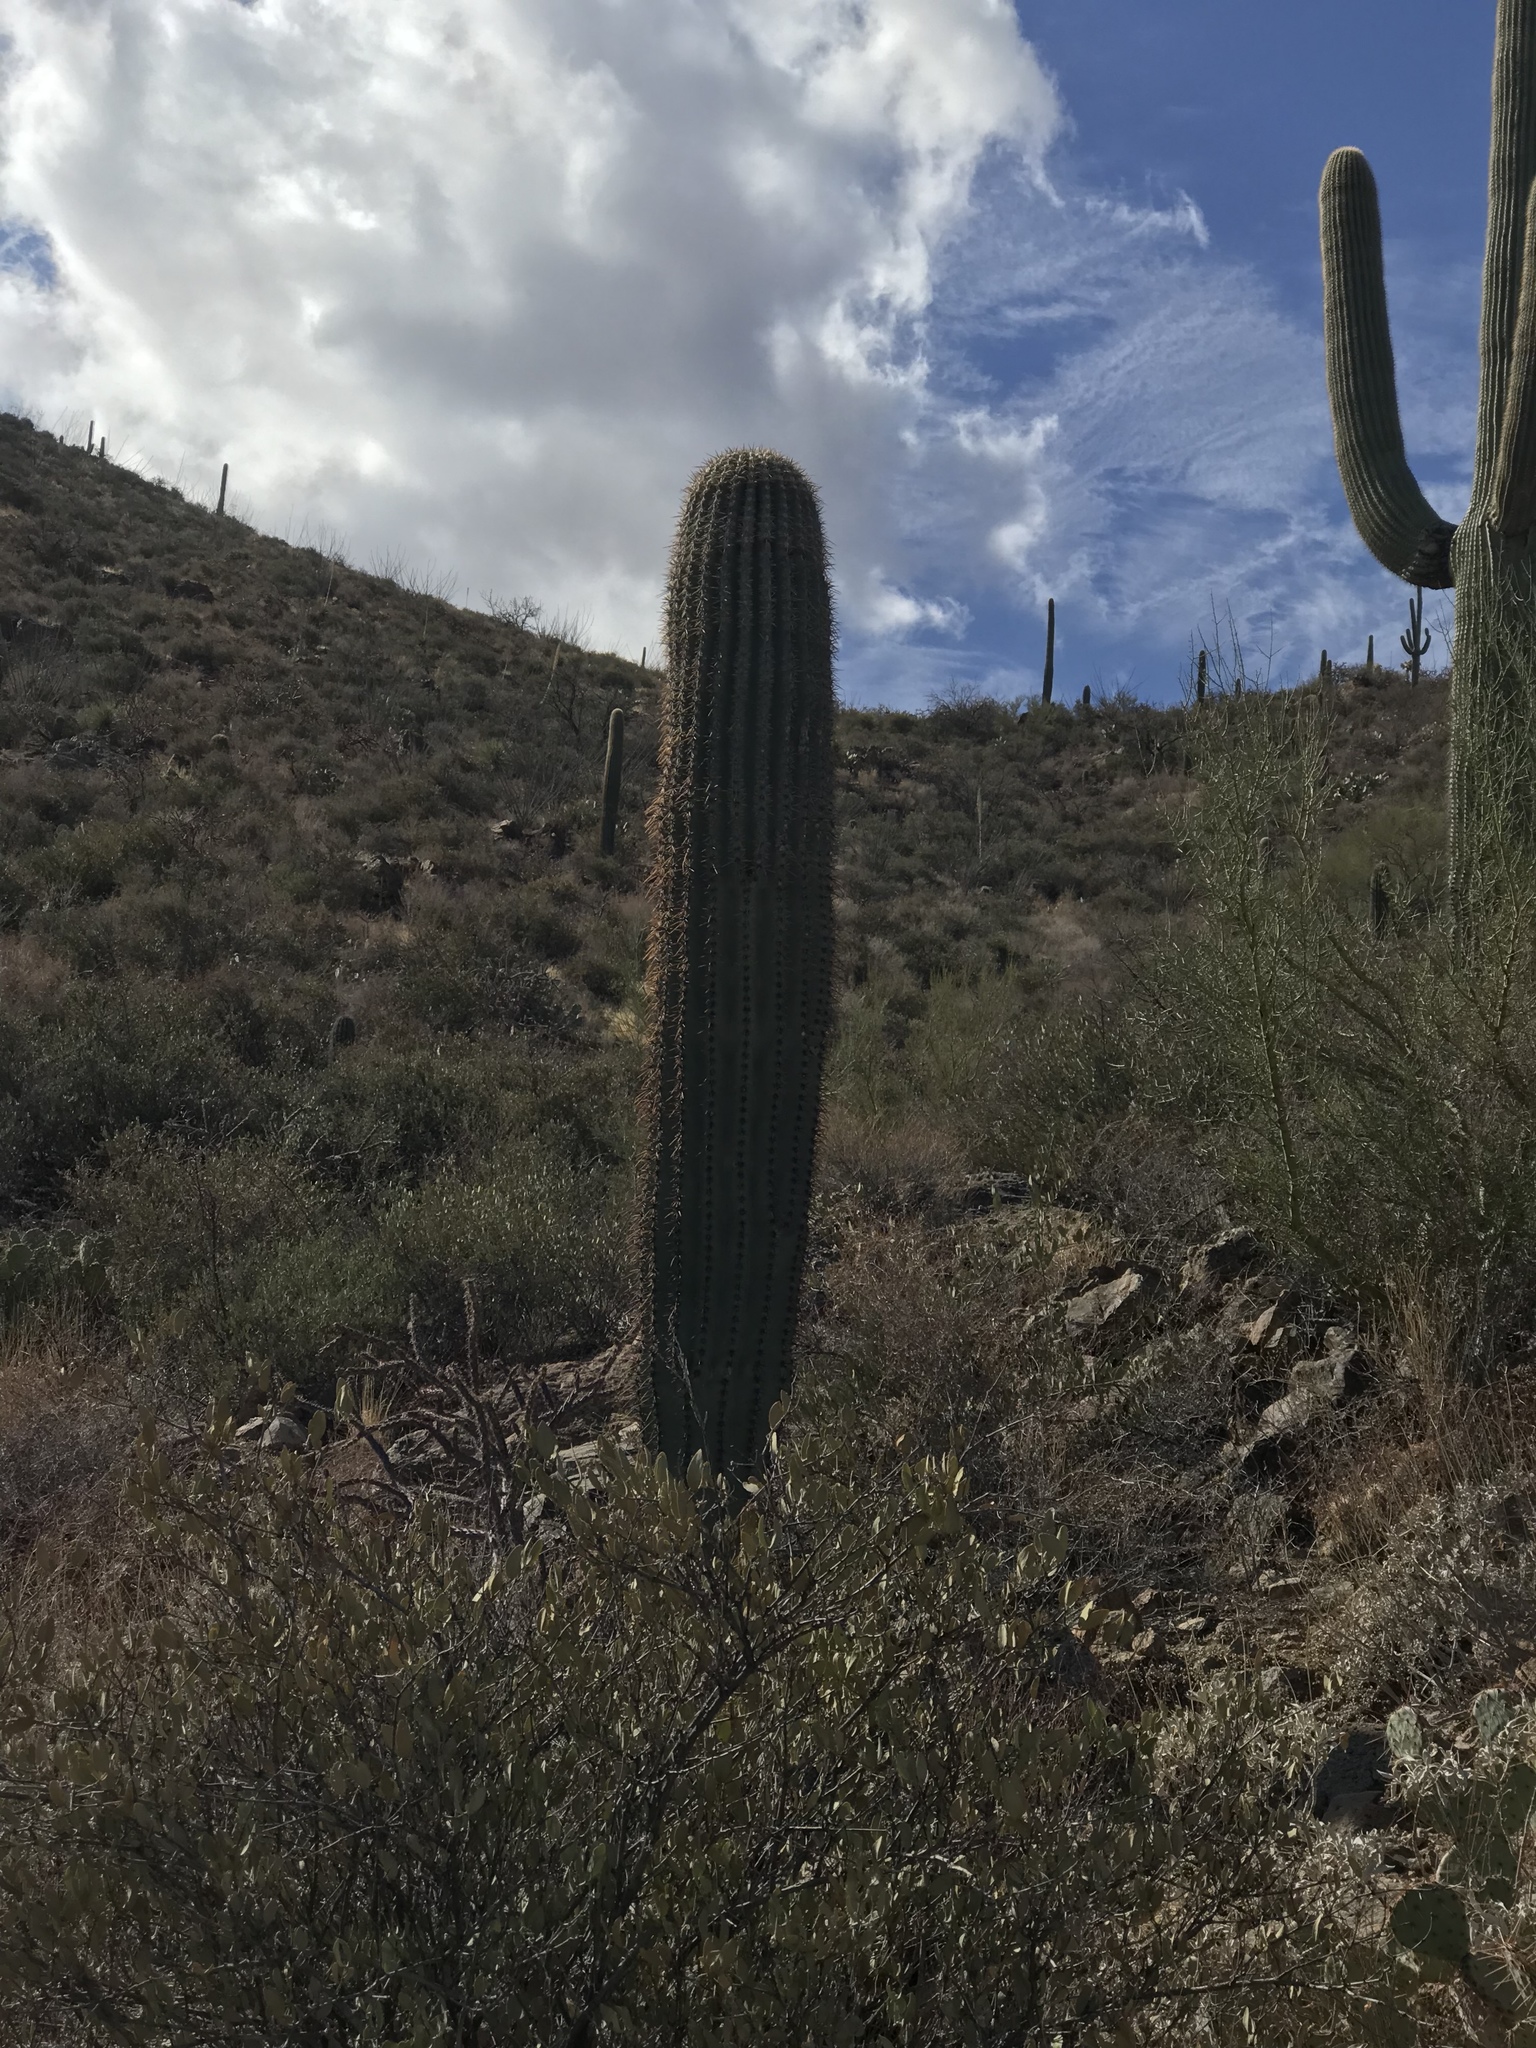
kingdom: Plantae
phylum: Tracheophyta
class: Magnoliopsida
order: Caryophyllales
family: Cactaceae
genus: Carnegiea
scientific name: Carnegiea gigantea
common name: Saguaro
